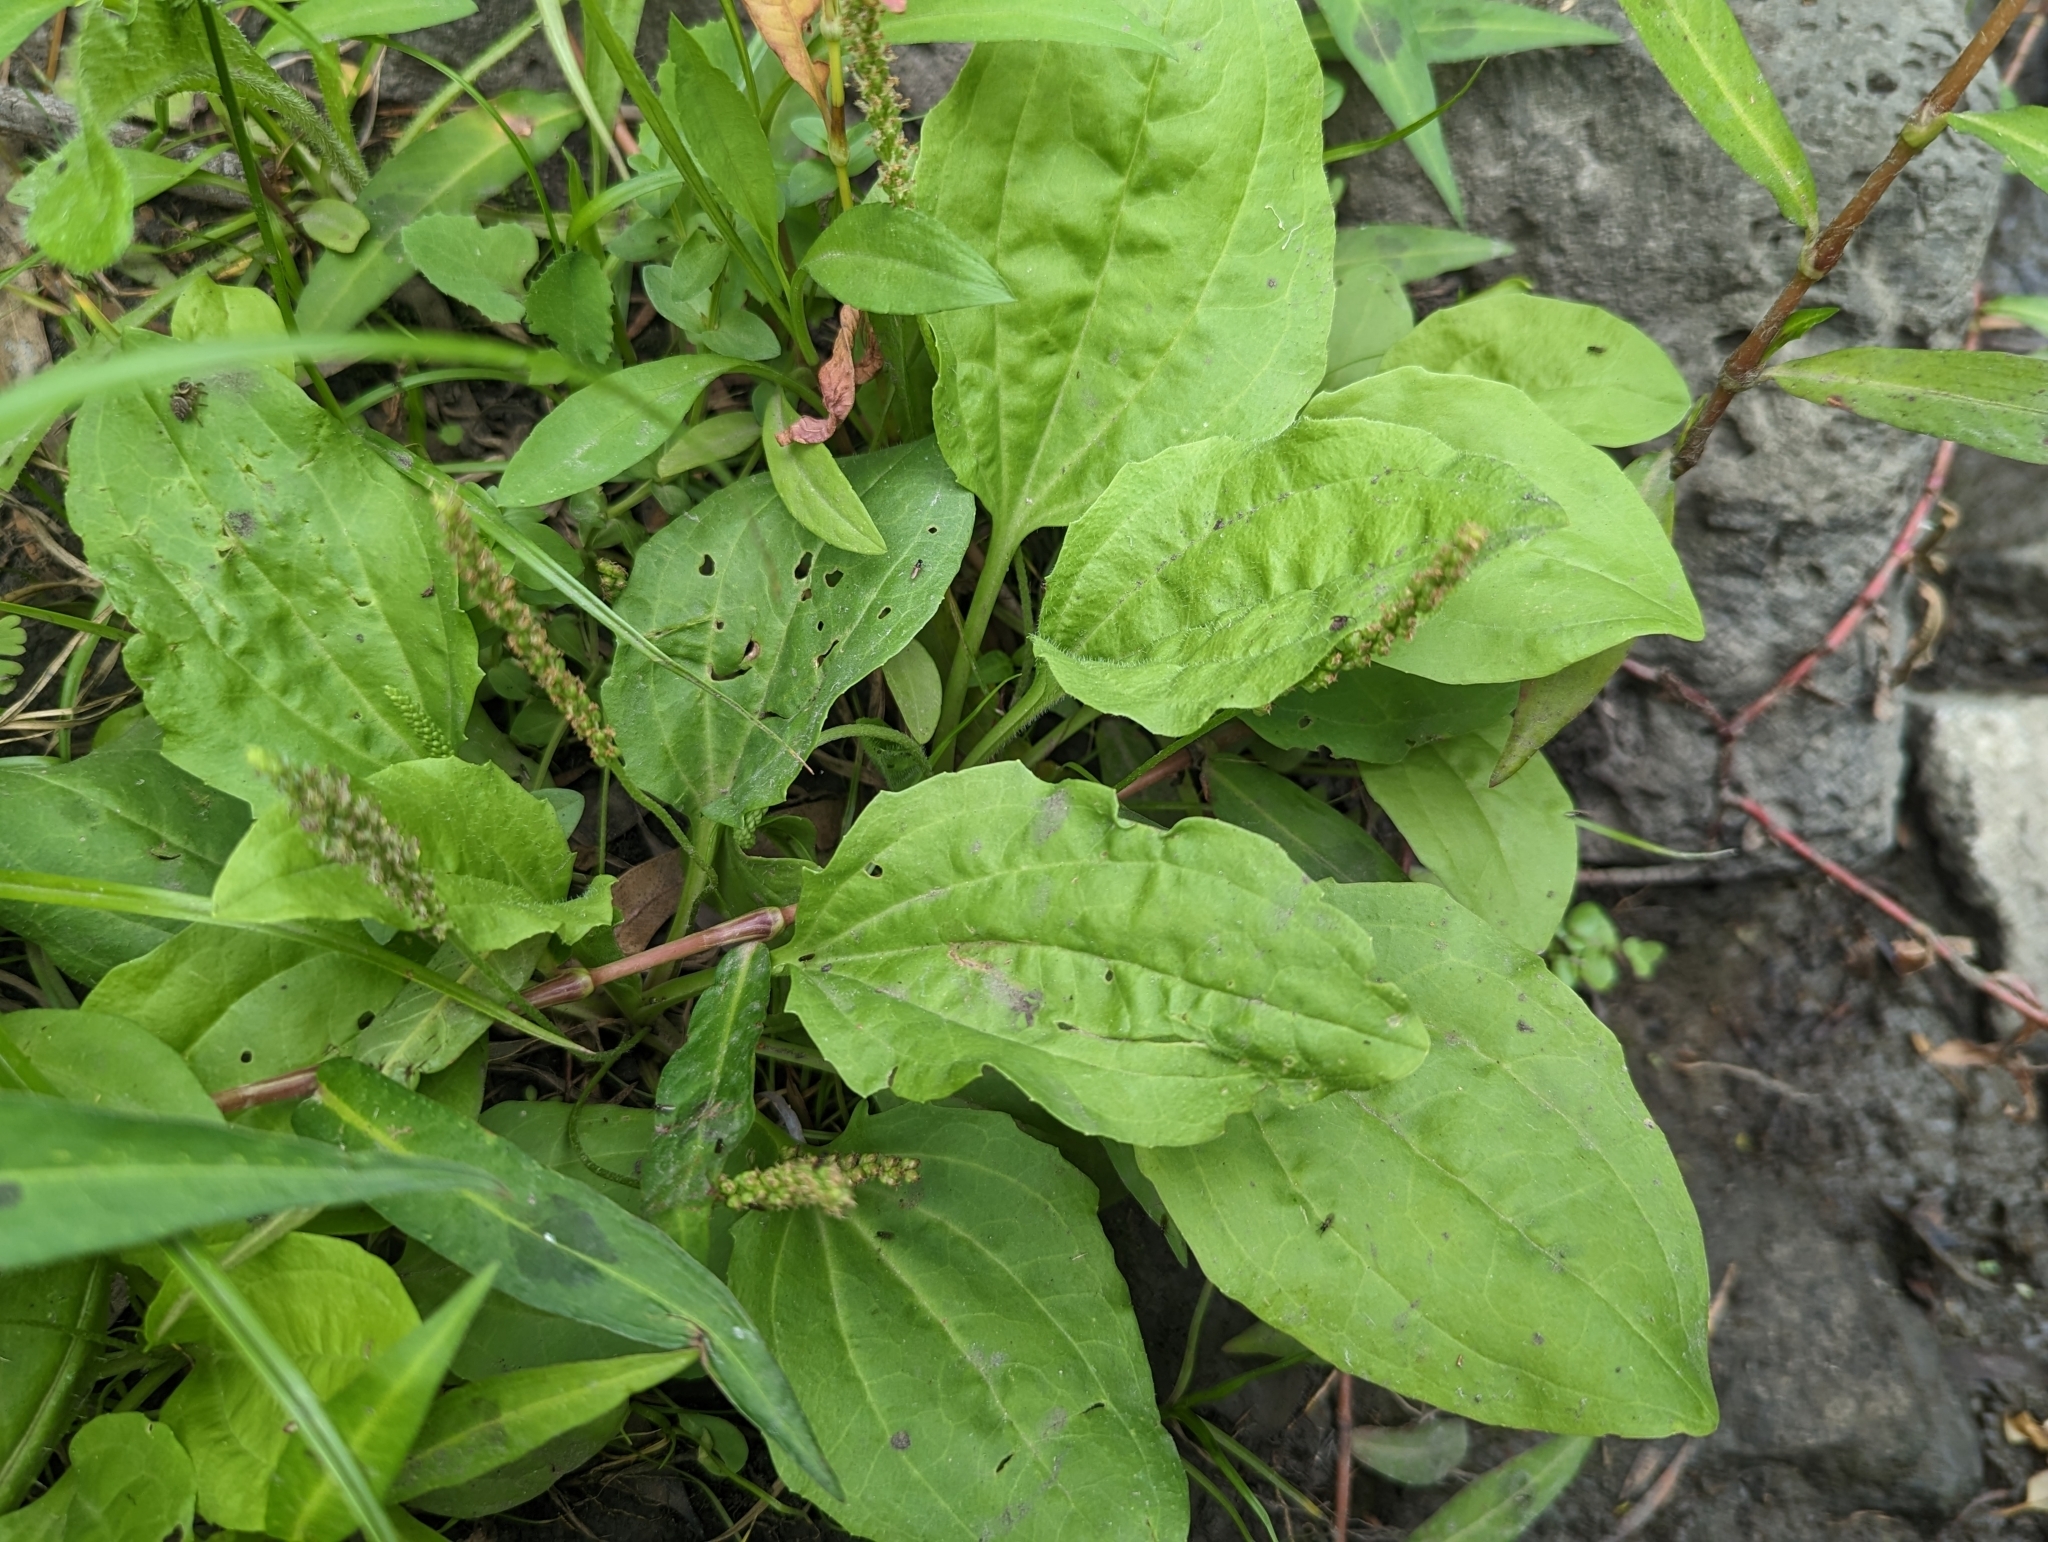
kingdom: Plantae
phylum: Tracheophyta
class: Magnoliopsida
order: Lamiales
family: Plantaginaceae
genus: Plantago
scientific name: Plantago major
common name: Common plantain
